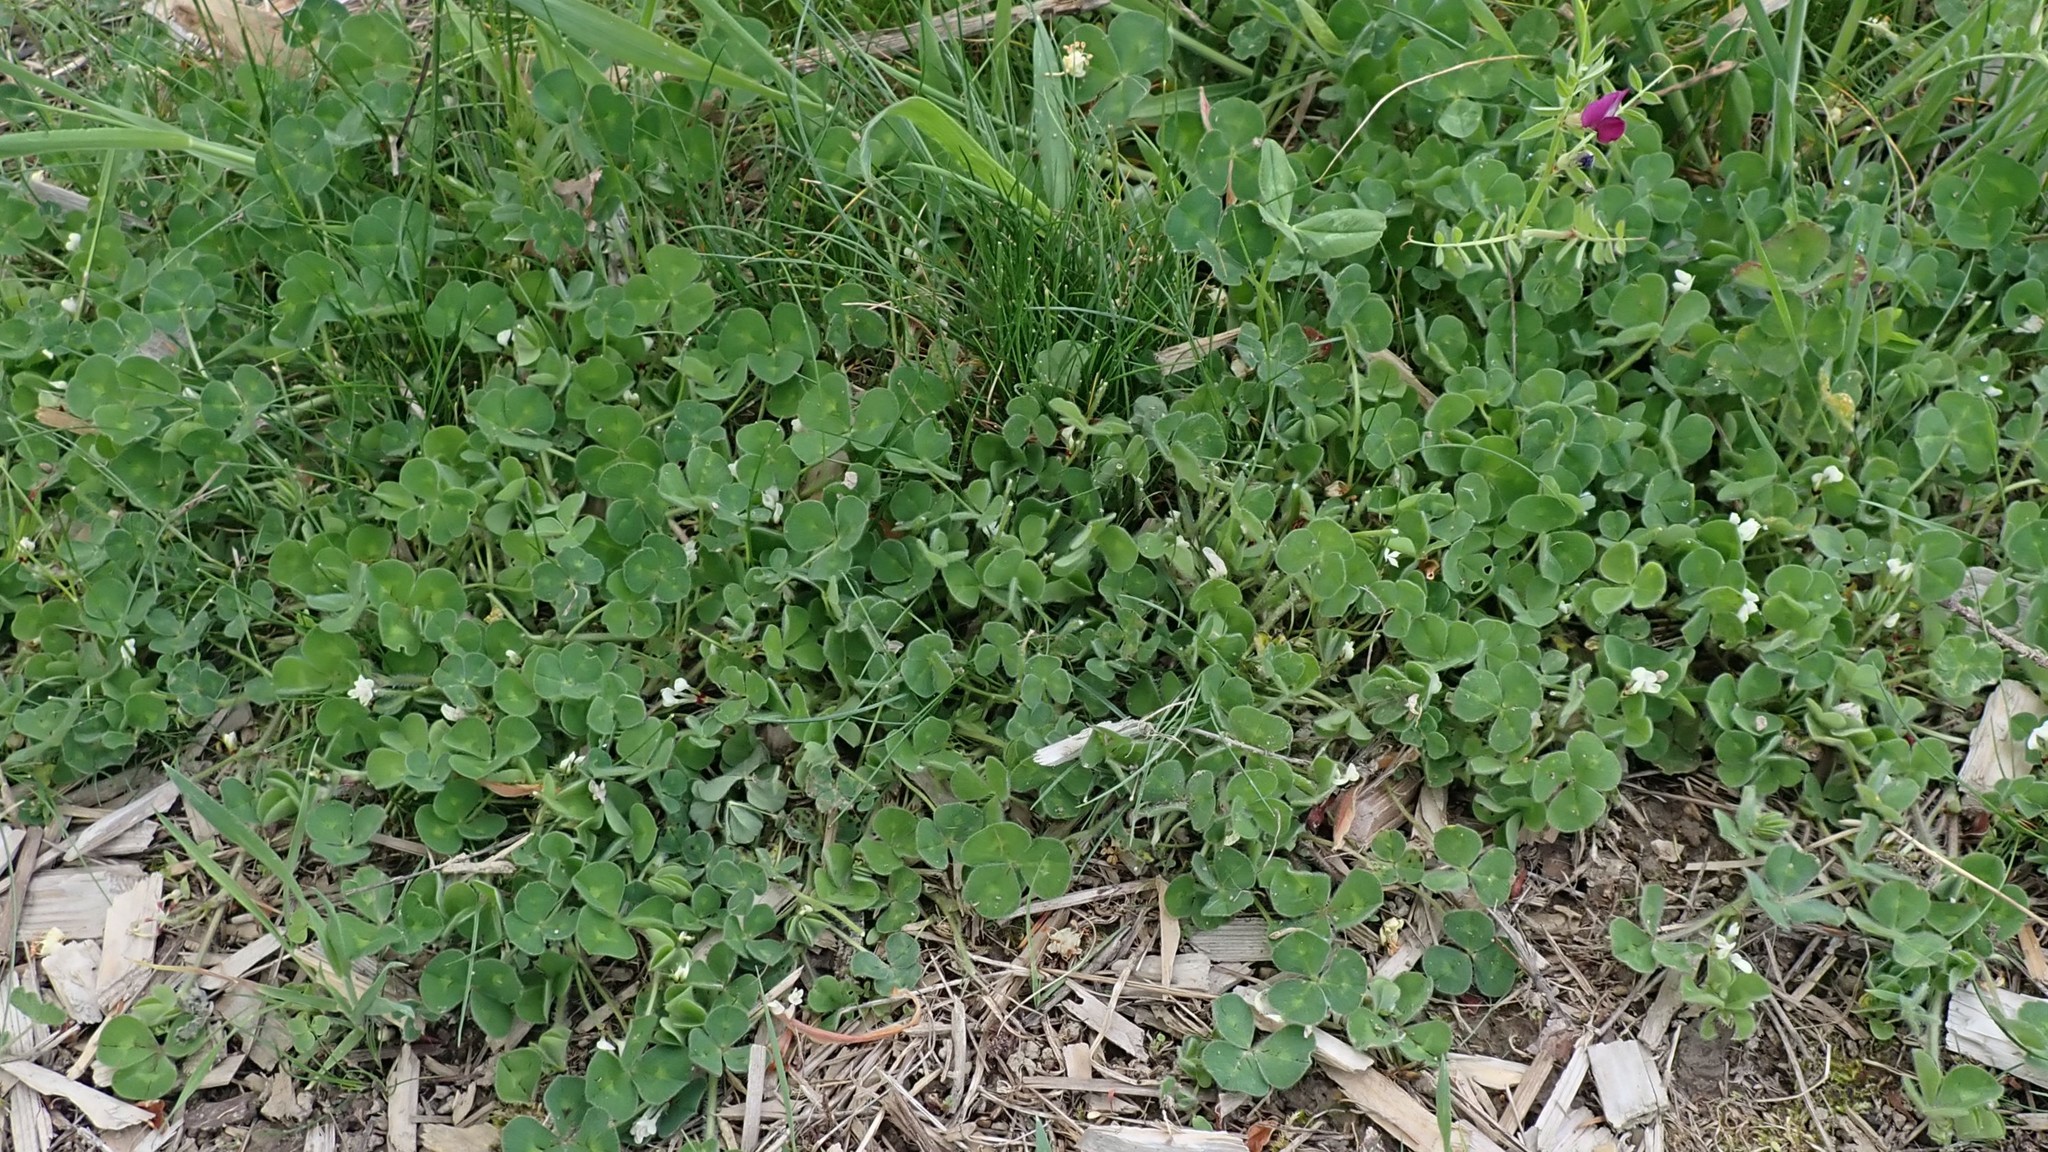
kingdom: Plantae
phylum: Tracheophyta
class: Magnoliopsida
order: Fabales
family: Fabaceae
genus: Trifolium
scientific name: Trifolium subterraneum
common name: Subterranean clover
